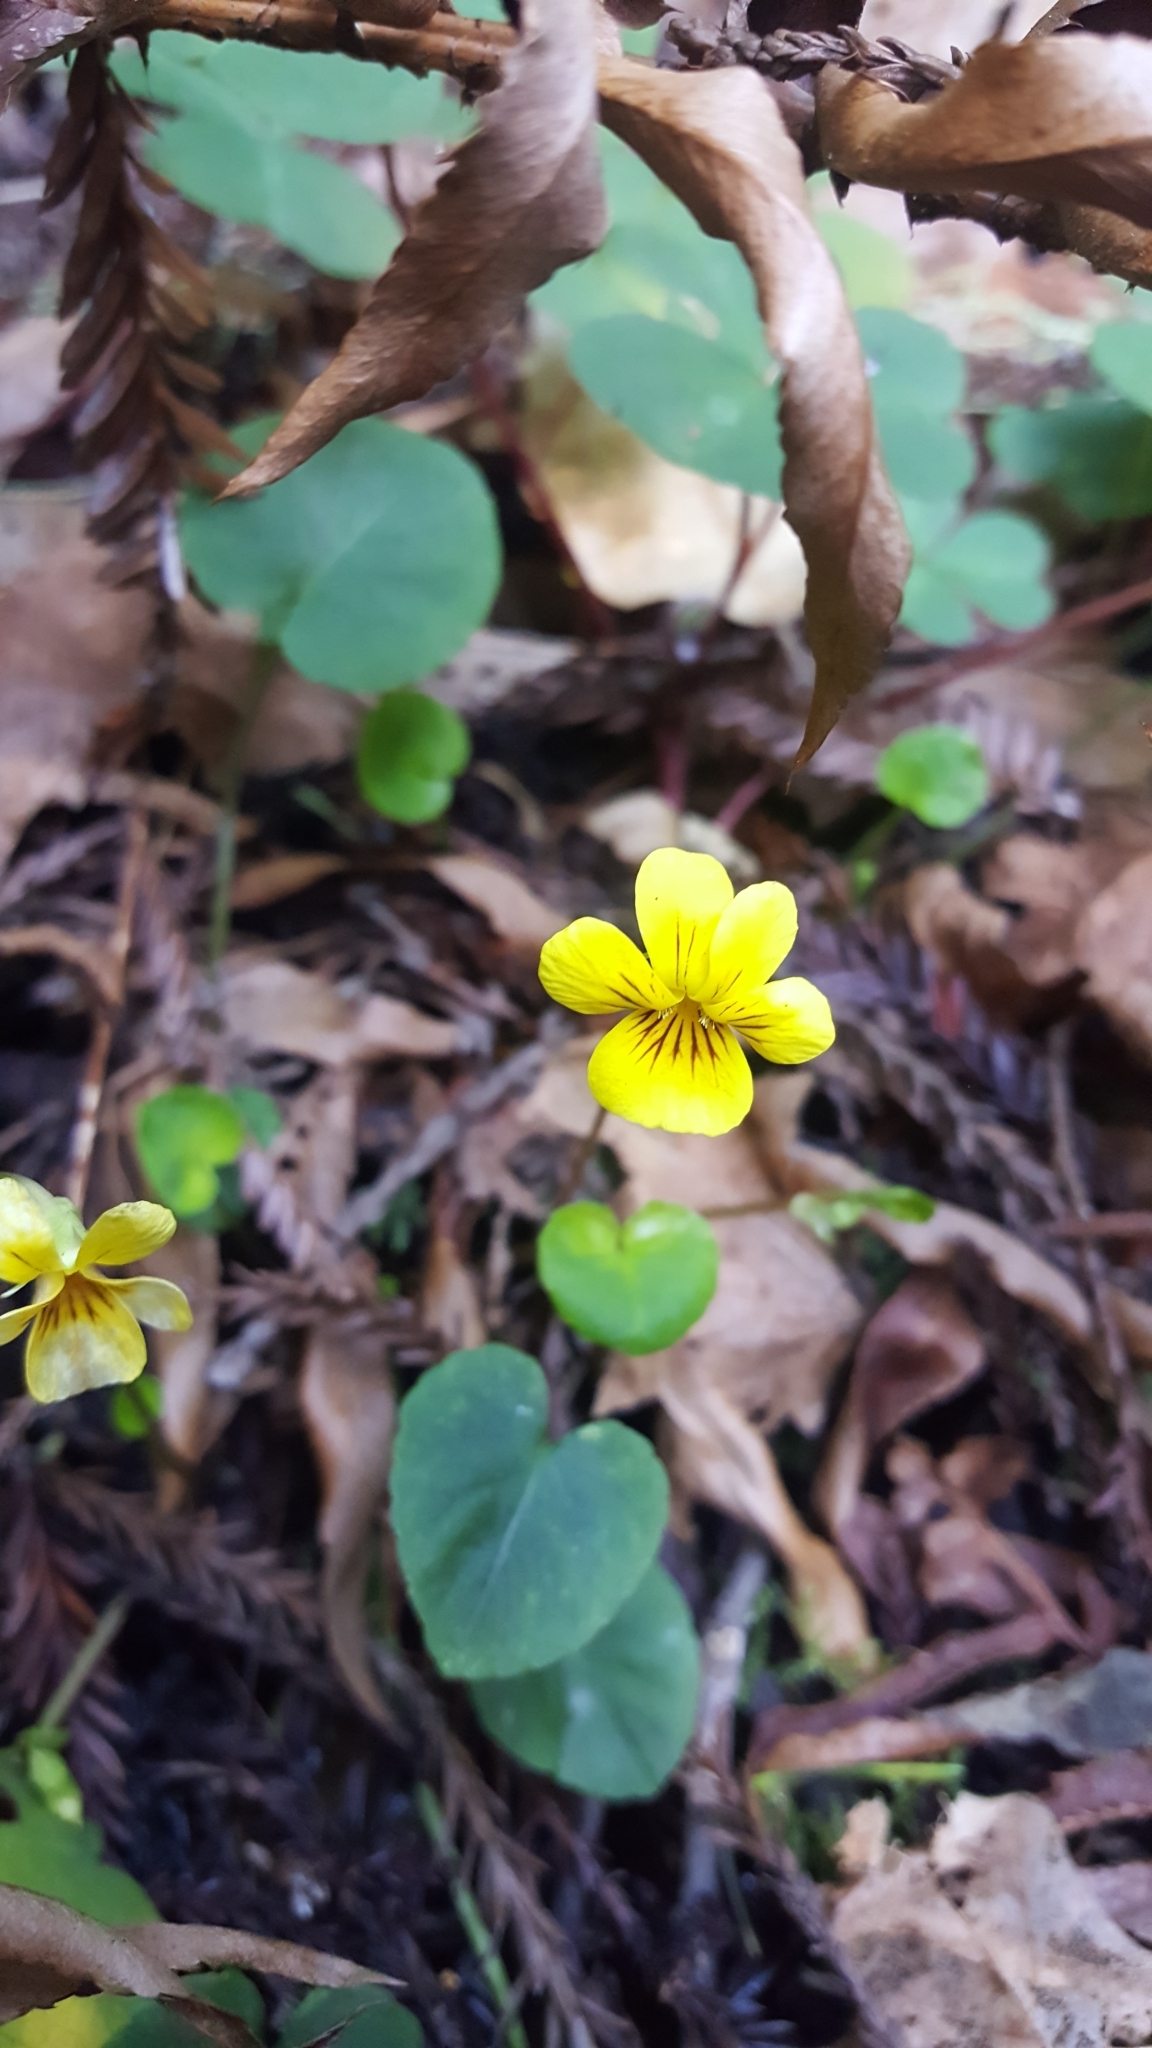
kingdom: Plantae
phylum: Tracheophyta
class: Magnoliopsida
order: Malpighiales
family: Violaceae
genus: Viola
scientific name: Viola sempervirens
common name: Evergreen violet
